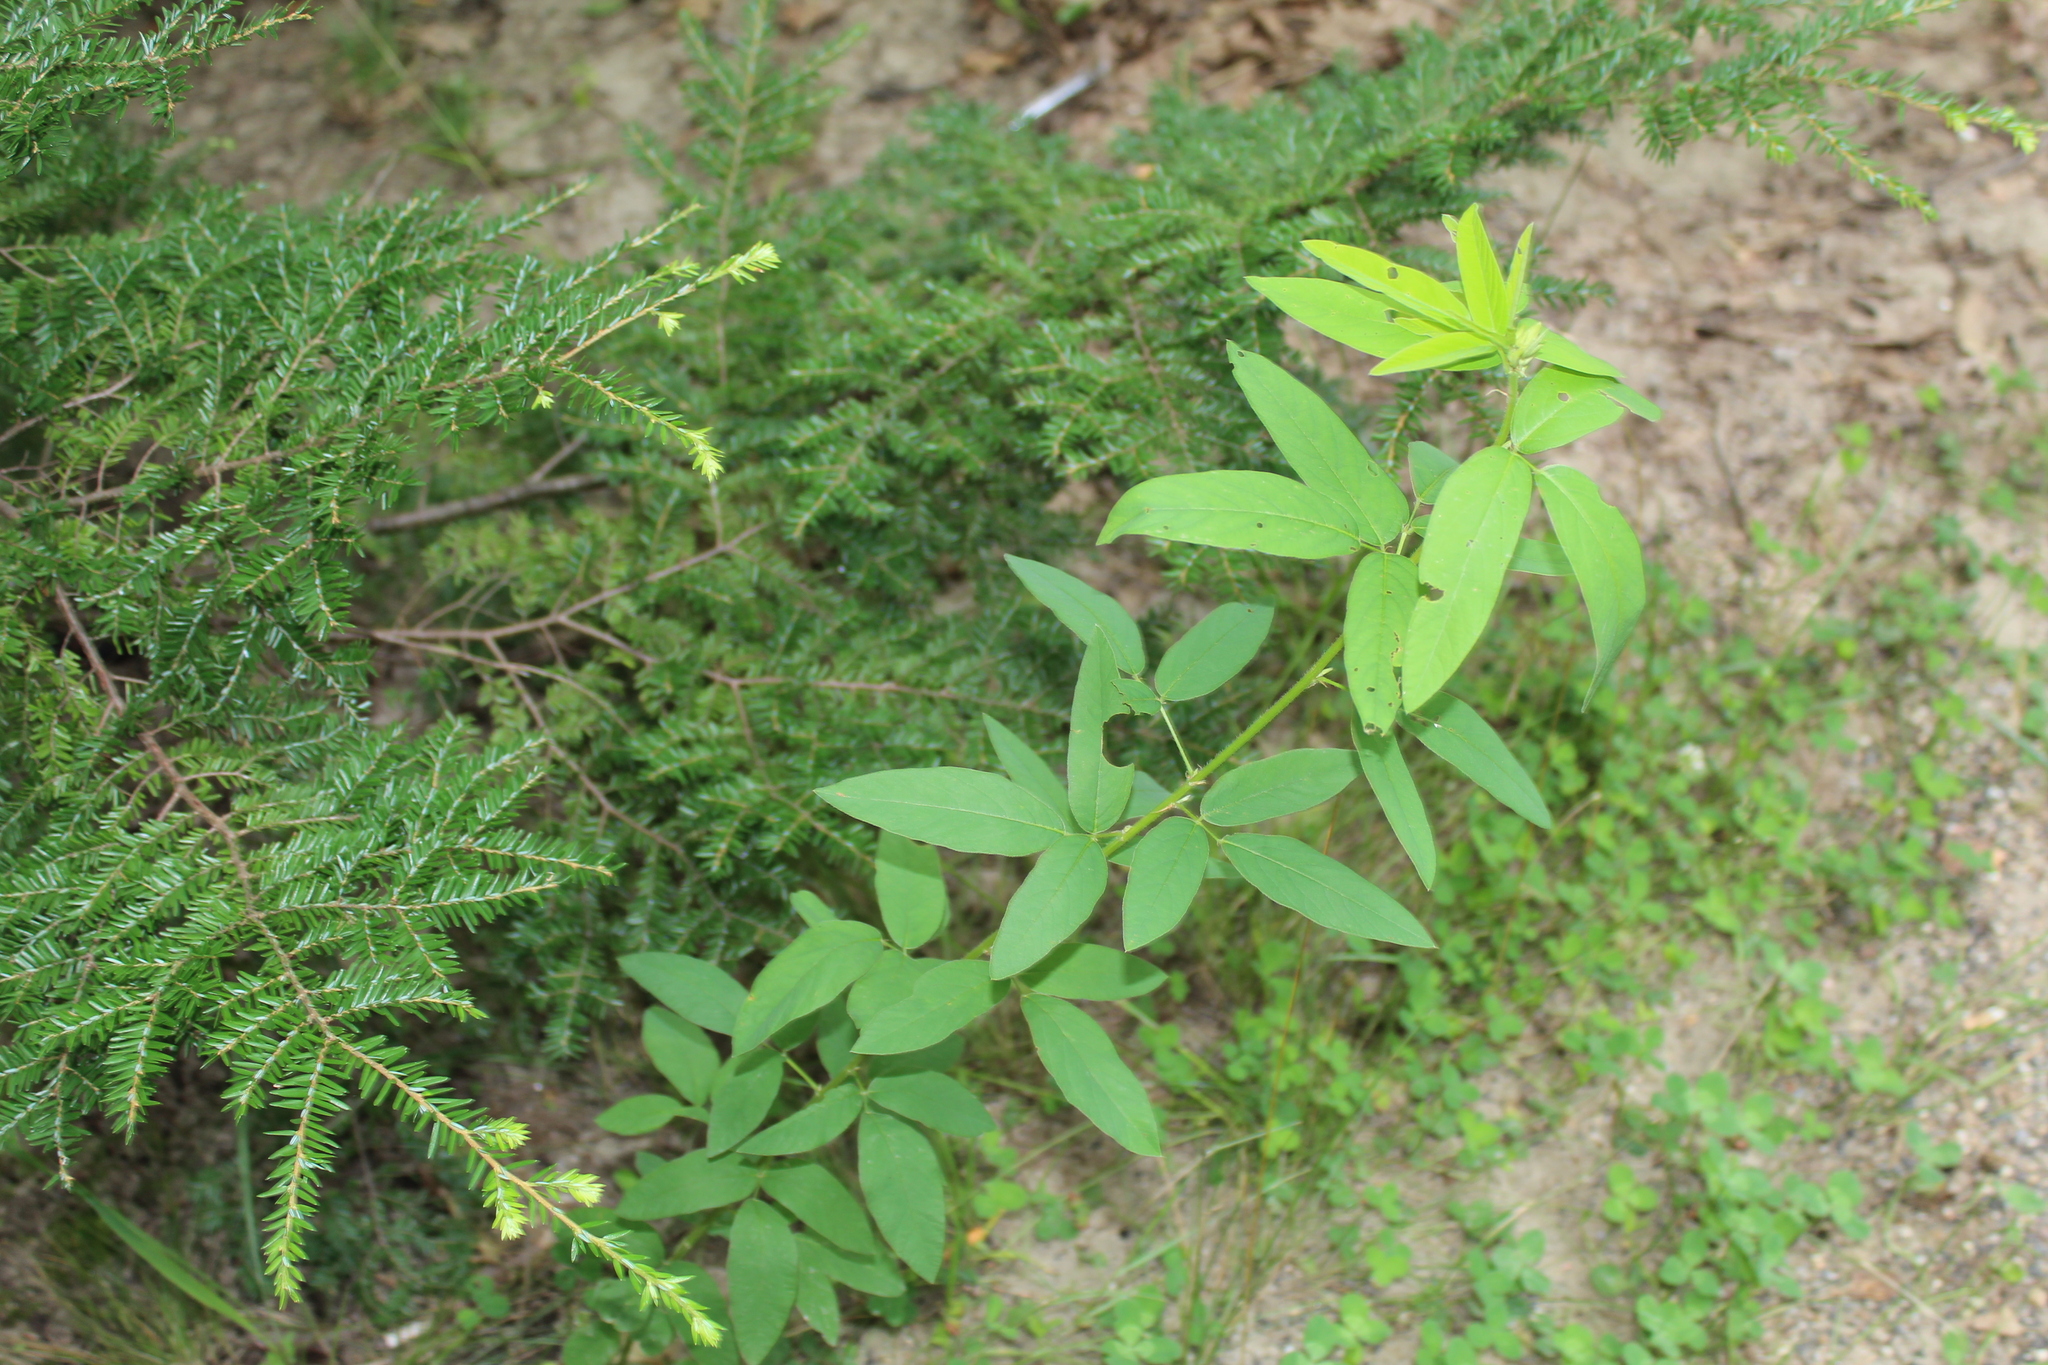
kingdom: Plantae
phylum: Tracheophyta
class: Magnoliopsida
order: Fabales
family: Fabaceae
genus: Desmodium
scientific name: Desmodium canadense
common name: Canada tick-trefoil
